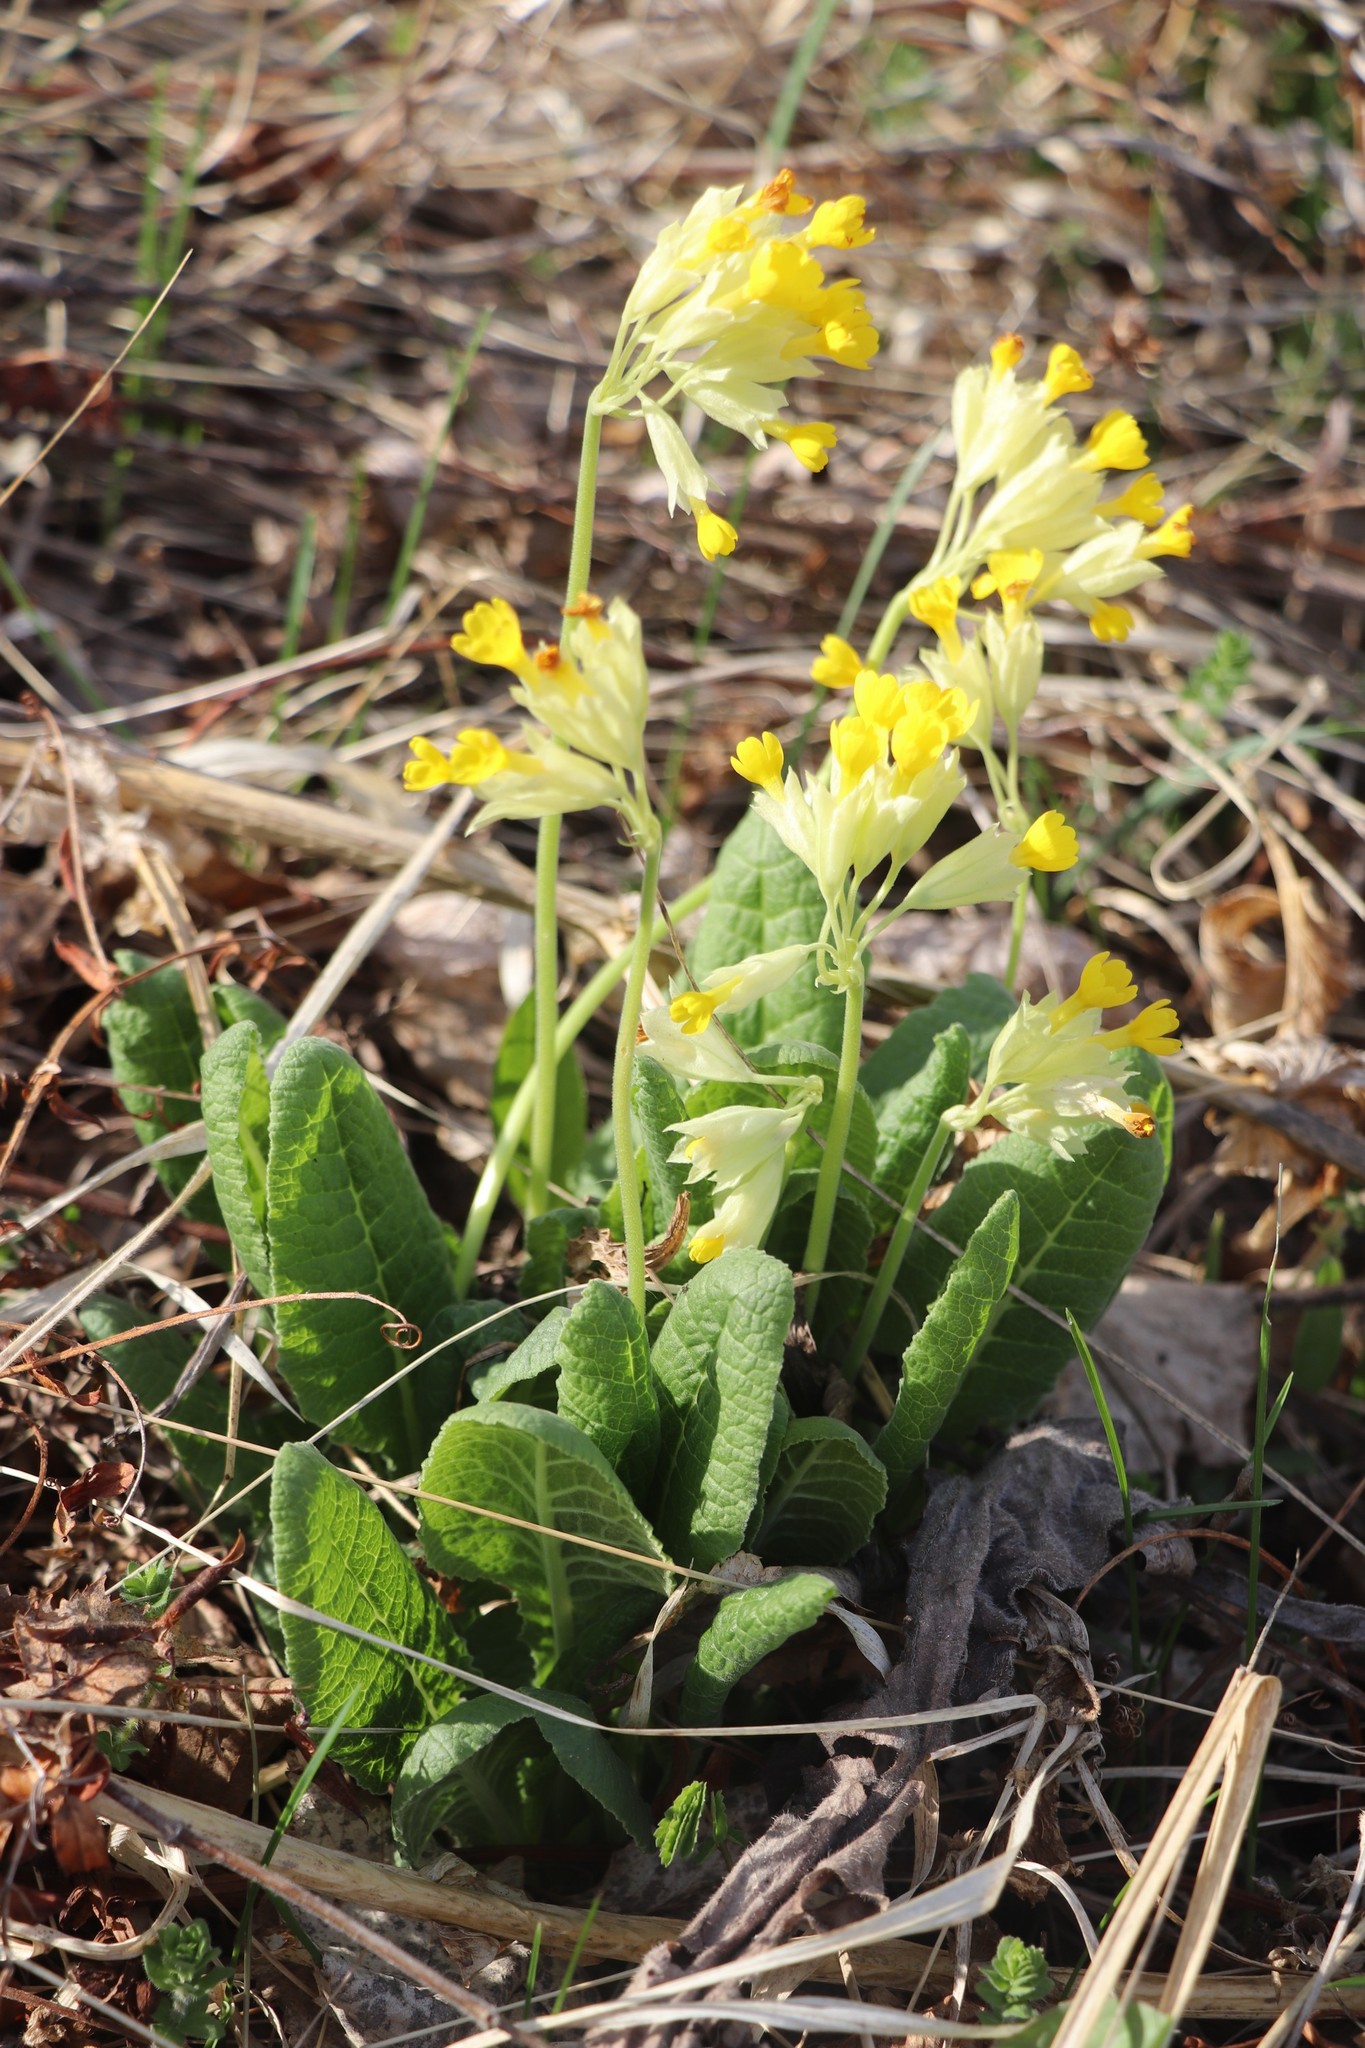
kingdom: Plantae
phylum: Tracheophyta
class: Magnoliopsida
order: Ericales
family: Primulaceae
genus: Primula
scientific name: Primula veris
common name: Cowslip
